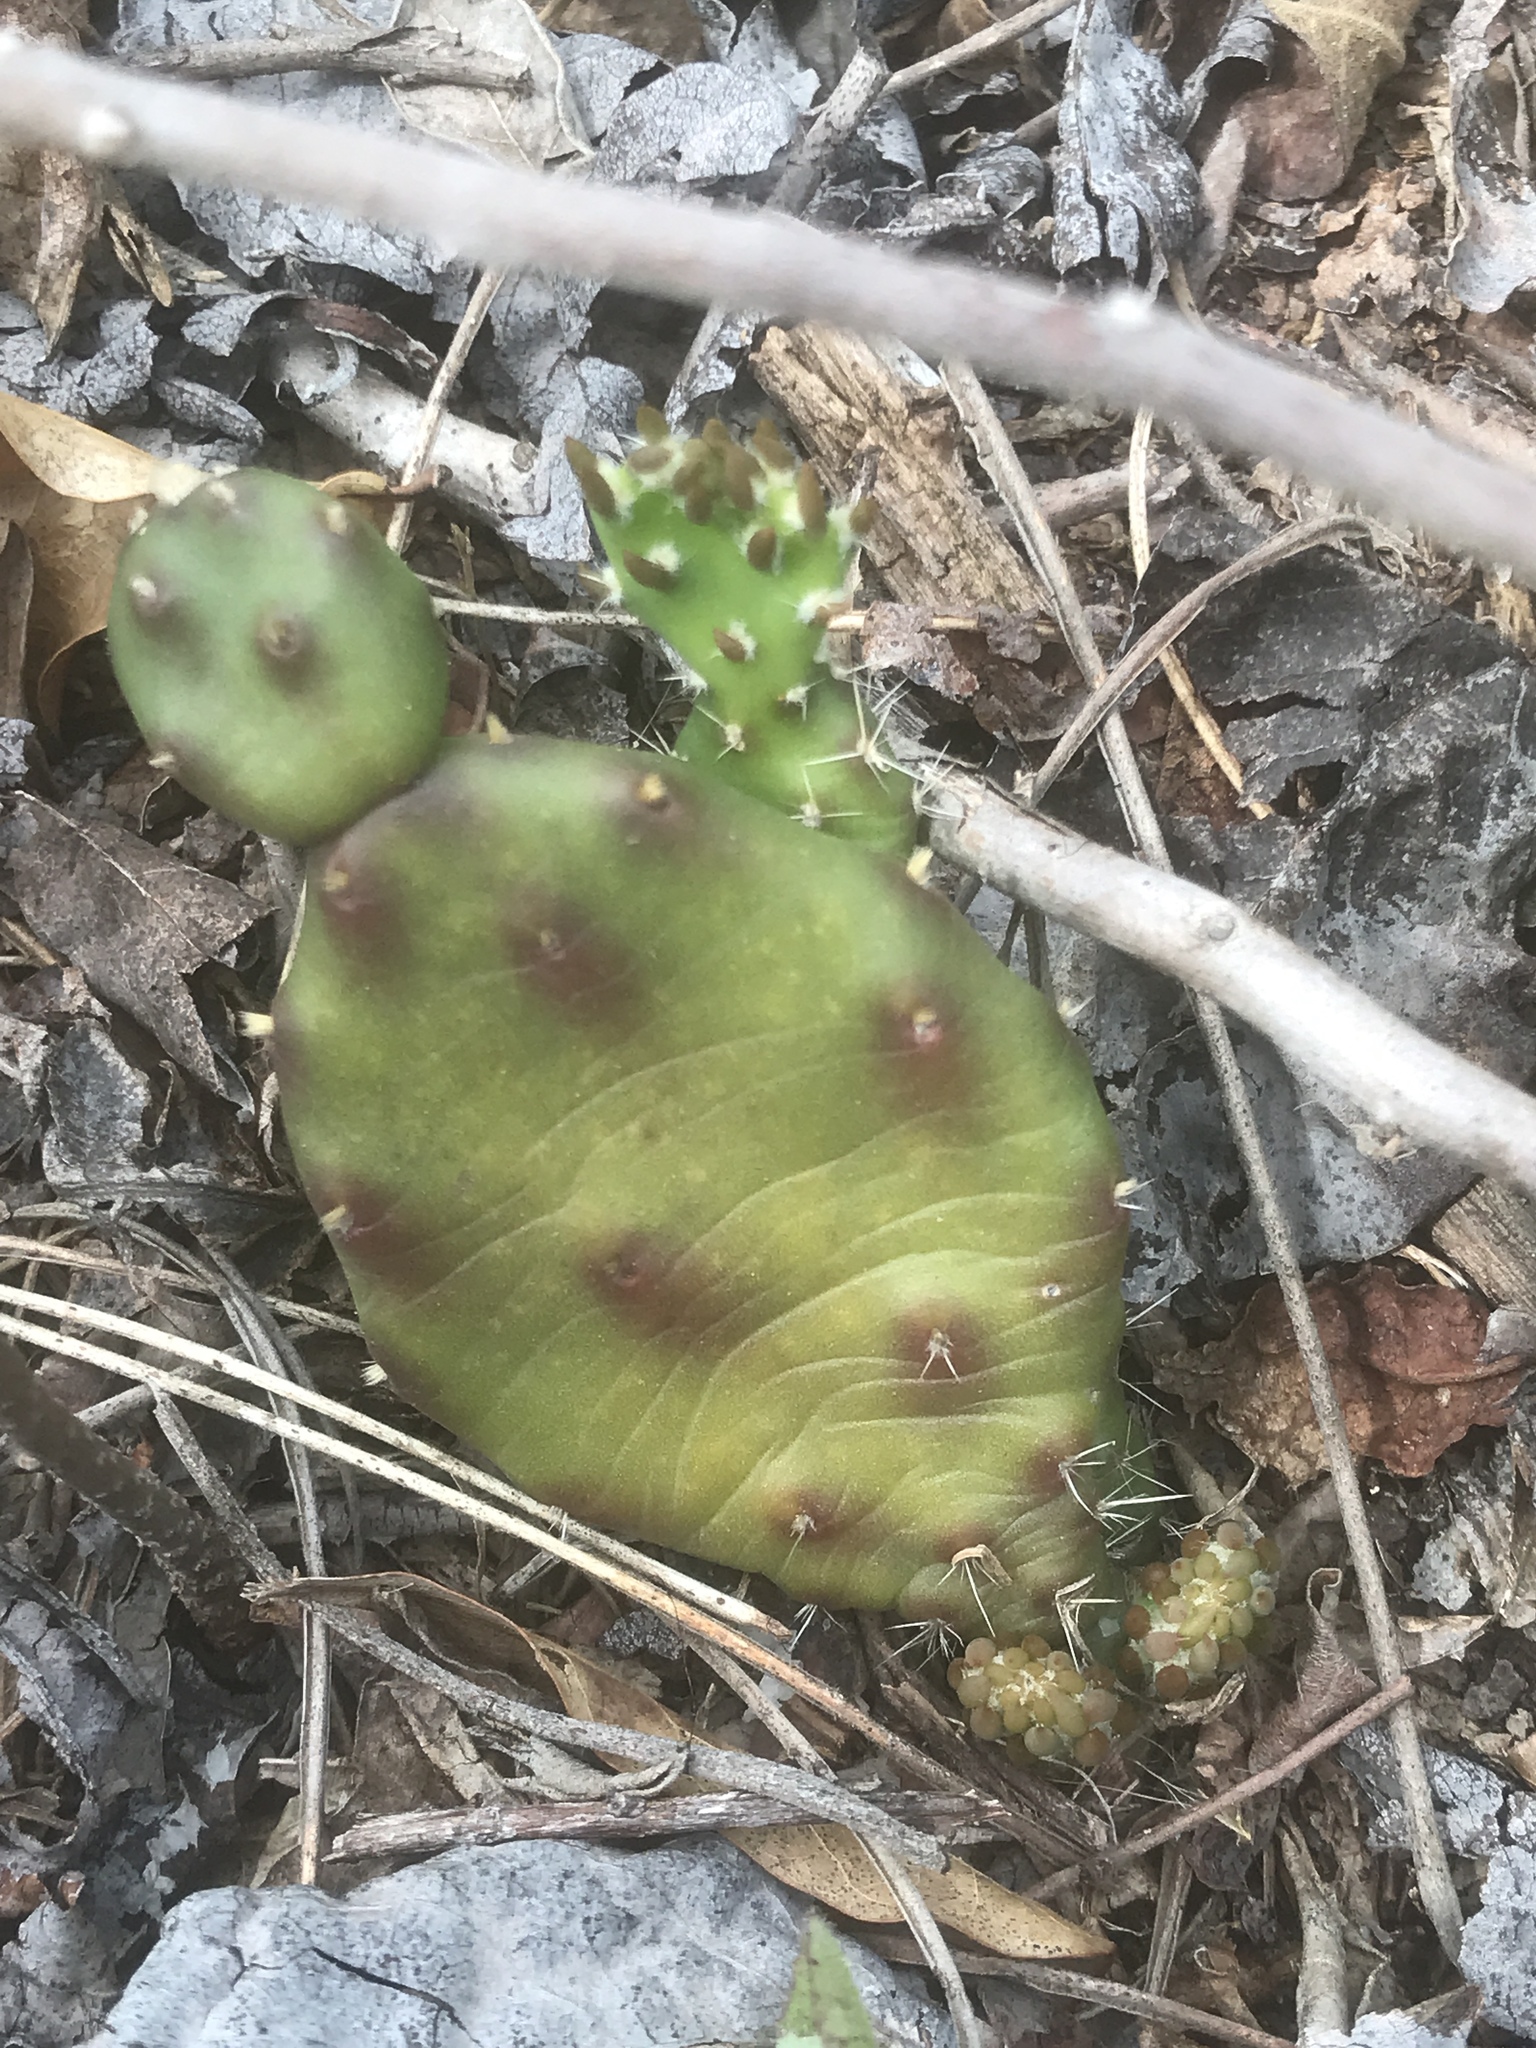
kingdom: Plantae
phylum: Tracheophyta
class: Magnoliopsida
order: Caryophyllales
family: Cactaceae
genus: Opuntia
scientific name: Opuntia mesacantha
